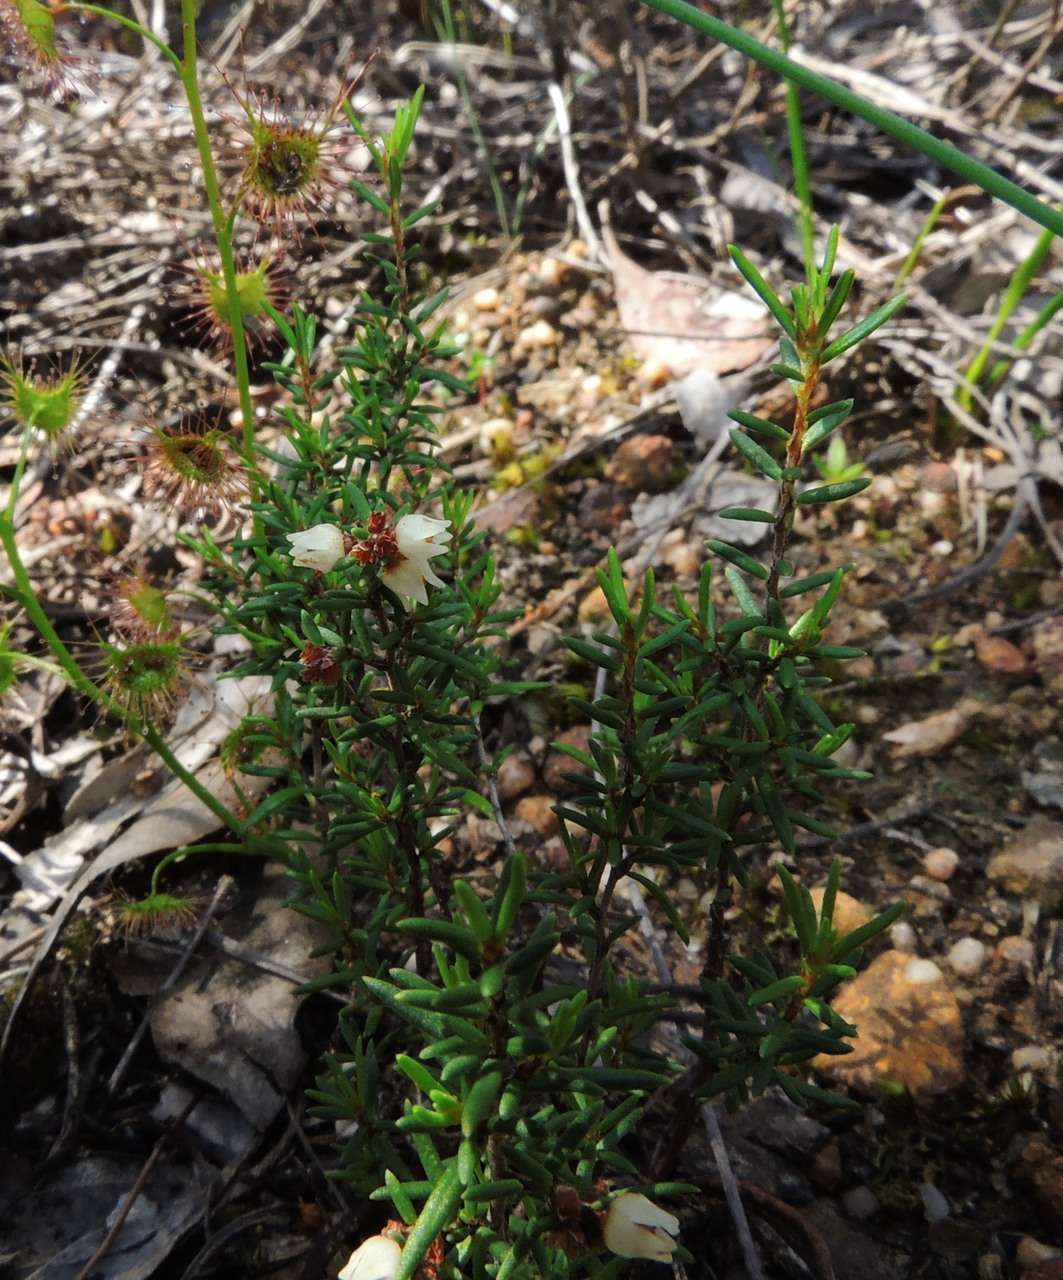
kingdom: Plantae
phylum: Tracheophyta
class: Magnoliopsida
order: Rosales
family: Rhamnaceae
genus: Cryptandra
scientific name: Cryptandra tomentosa
